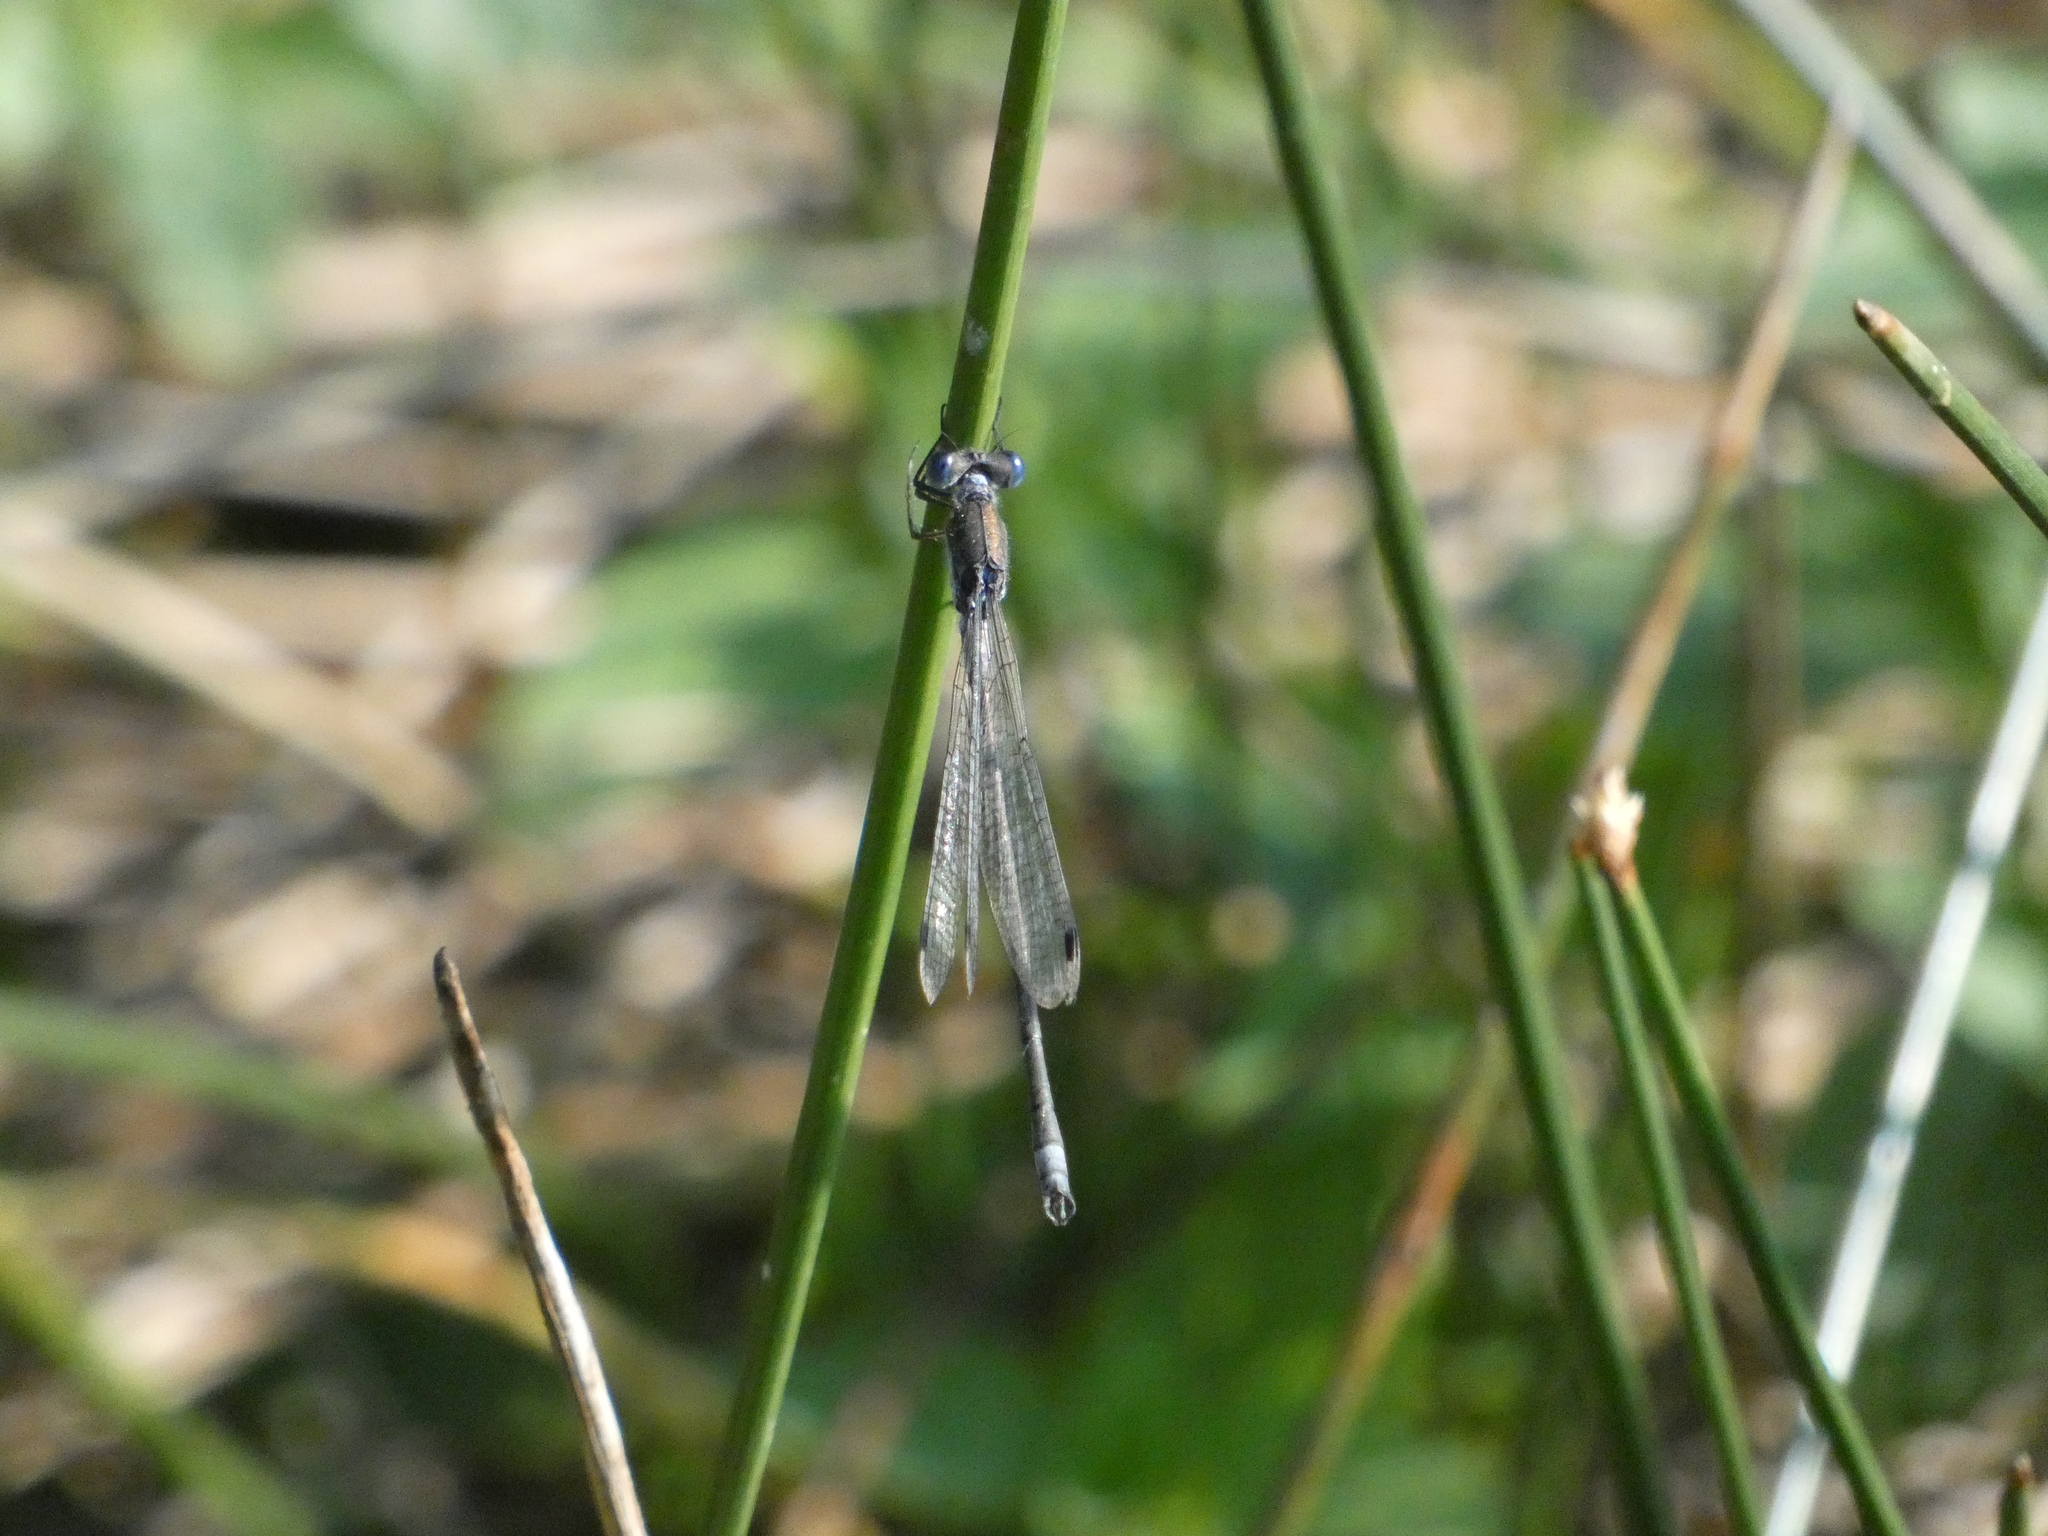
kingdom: Animalia
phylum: Arthropoda
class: Insecta
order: Odonata
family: Lestidae
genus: Lestes
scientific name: Lestes sponsa
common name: Common spreadwing
